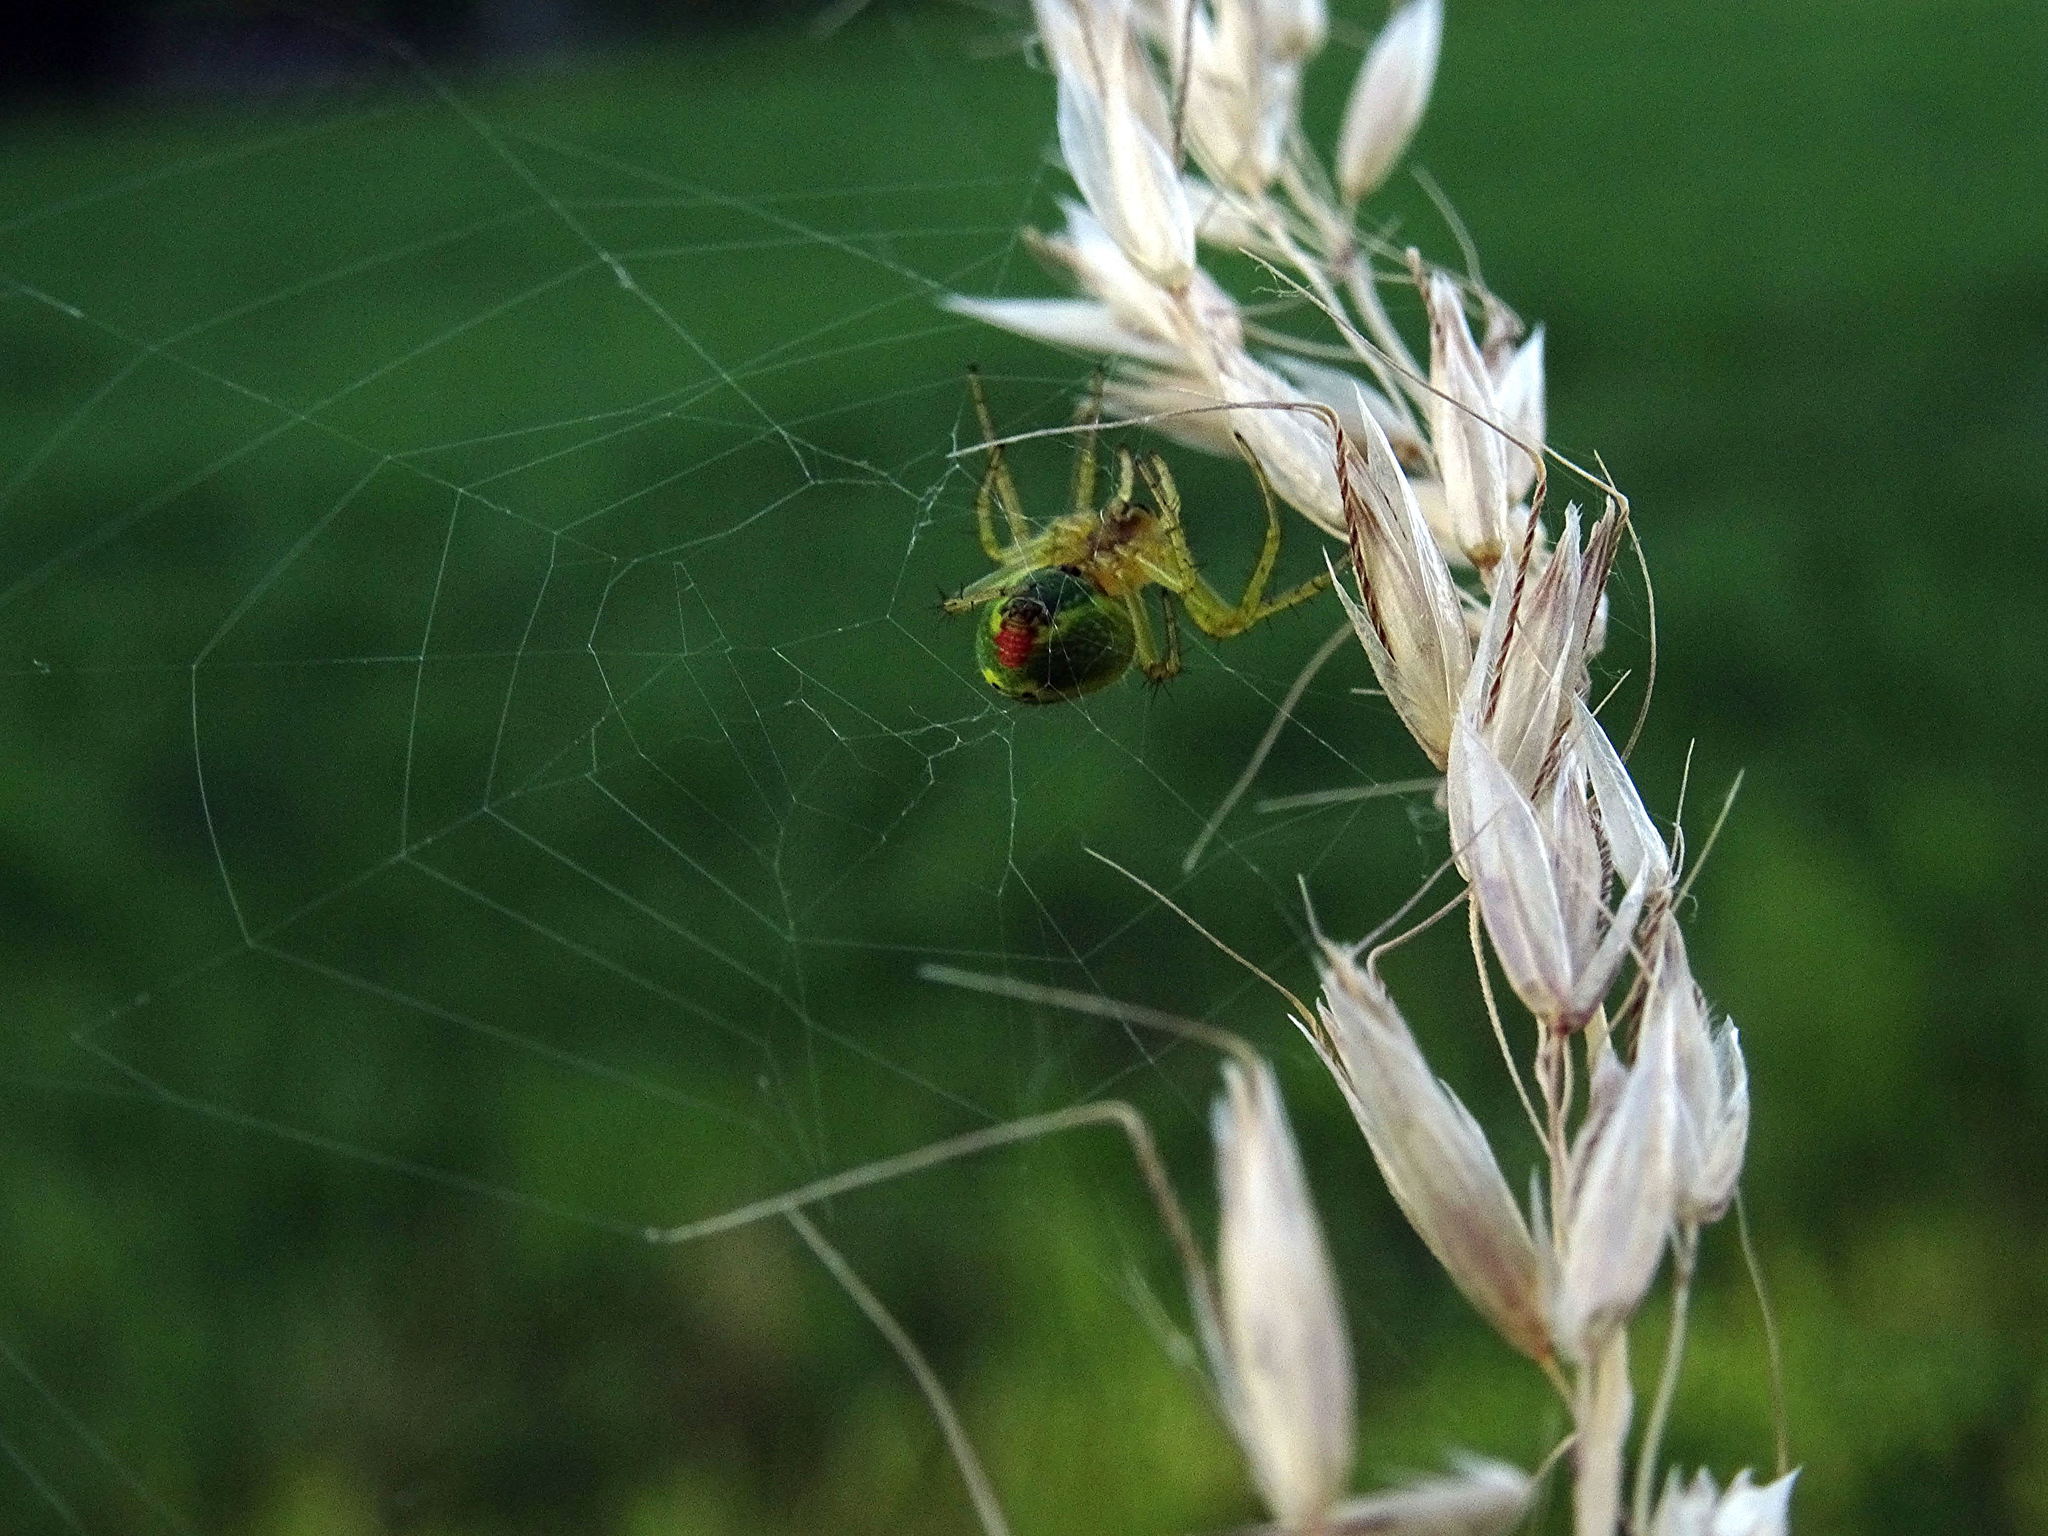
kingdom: Animalia
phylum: Arthropoda
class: Arachnida
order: Araneae
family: Araneidae
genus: Araniella
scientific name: Araniella cucurbitina
